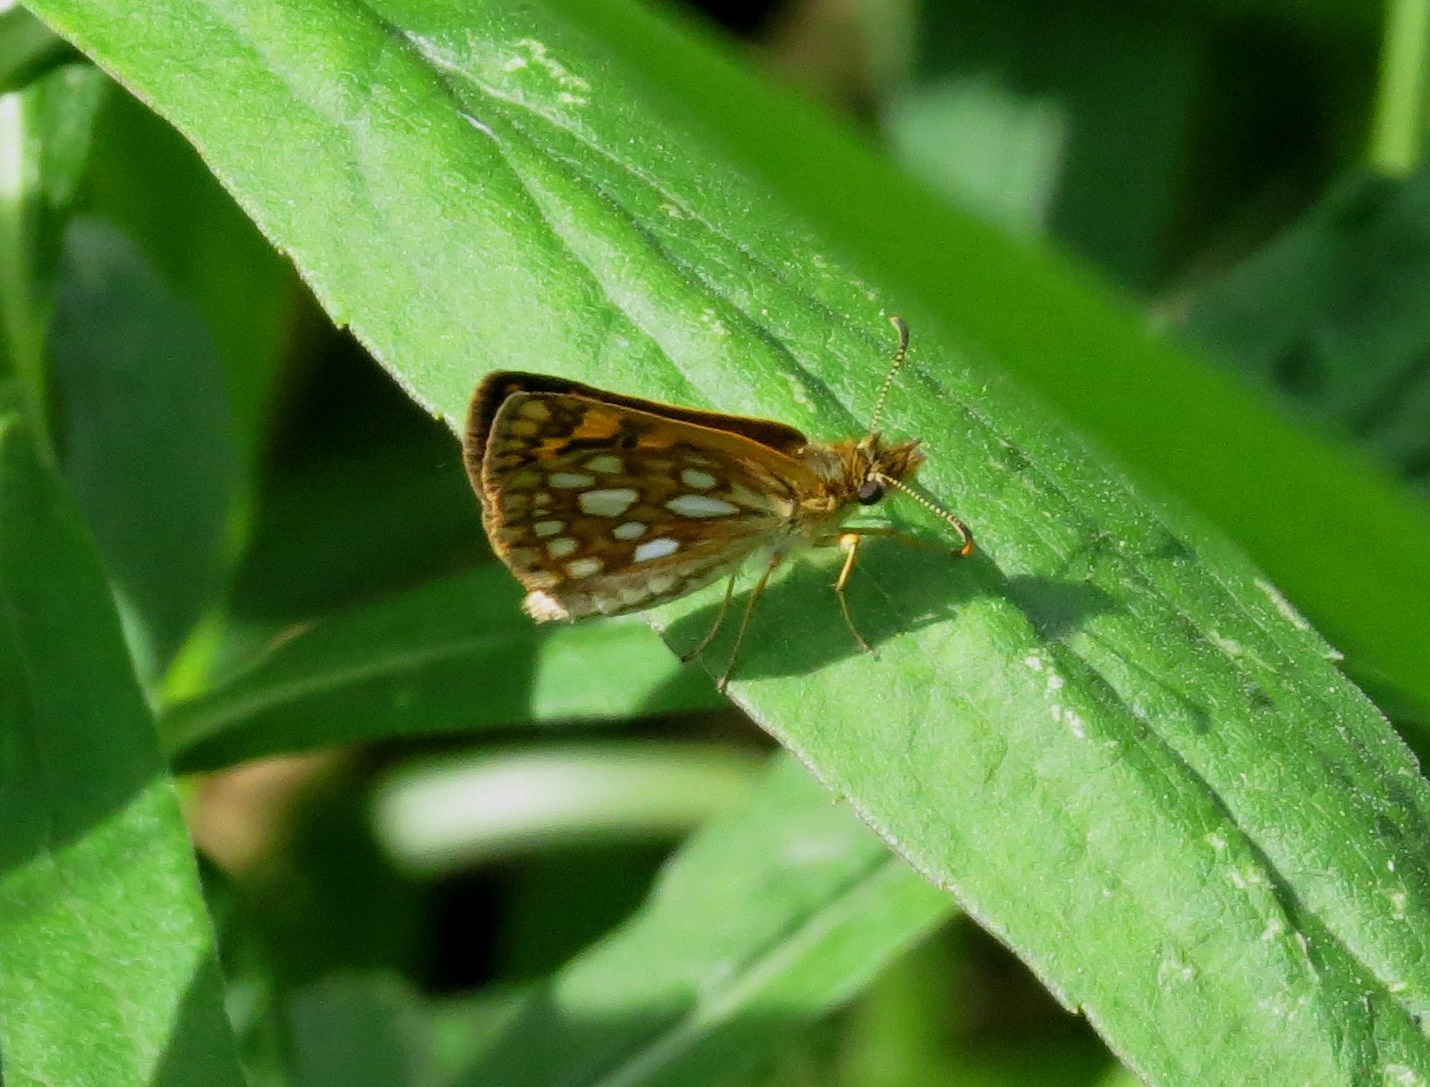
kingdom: Animalia
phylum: Arthropoda
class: Insecta
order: Lepidoptera
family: Hesperiidae
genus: Carterocephalus
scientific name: Carterocephalus mandan
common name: Arctic skipperling
